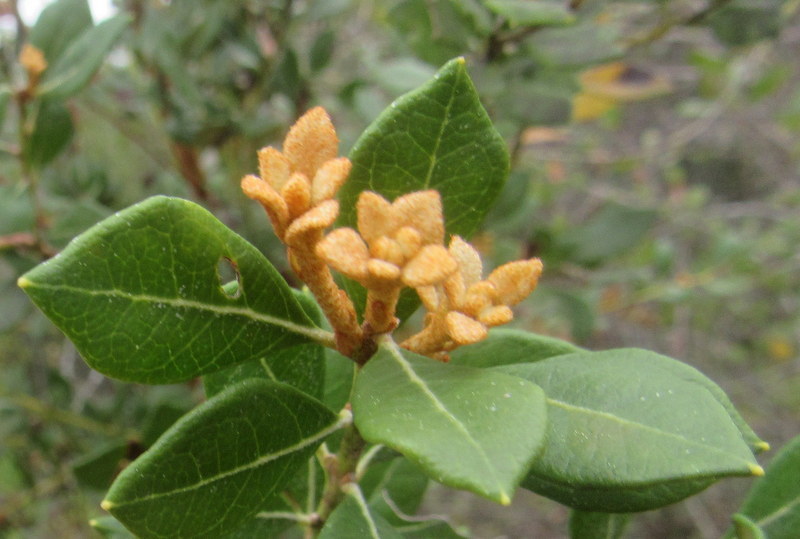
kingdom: Plantae
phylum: Tracheophyta
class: Magnoliopsida
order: Ericales
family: Ericaceae
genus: Lyonia
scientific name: Lyonia ferruginea
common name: Rusty lyonia
